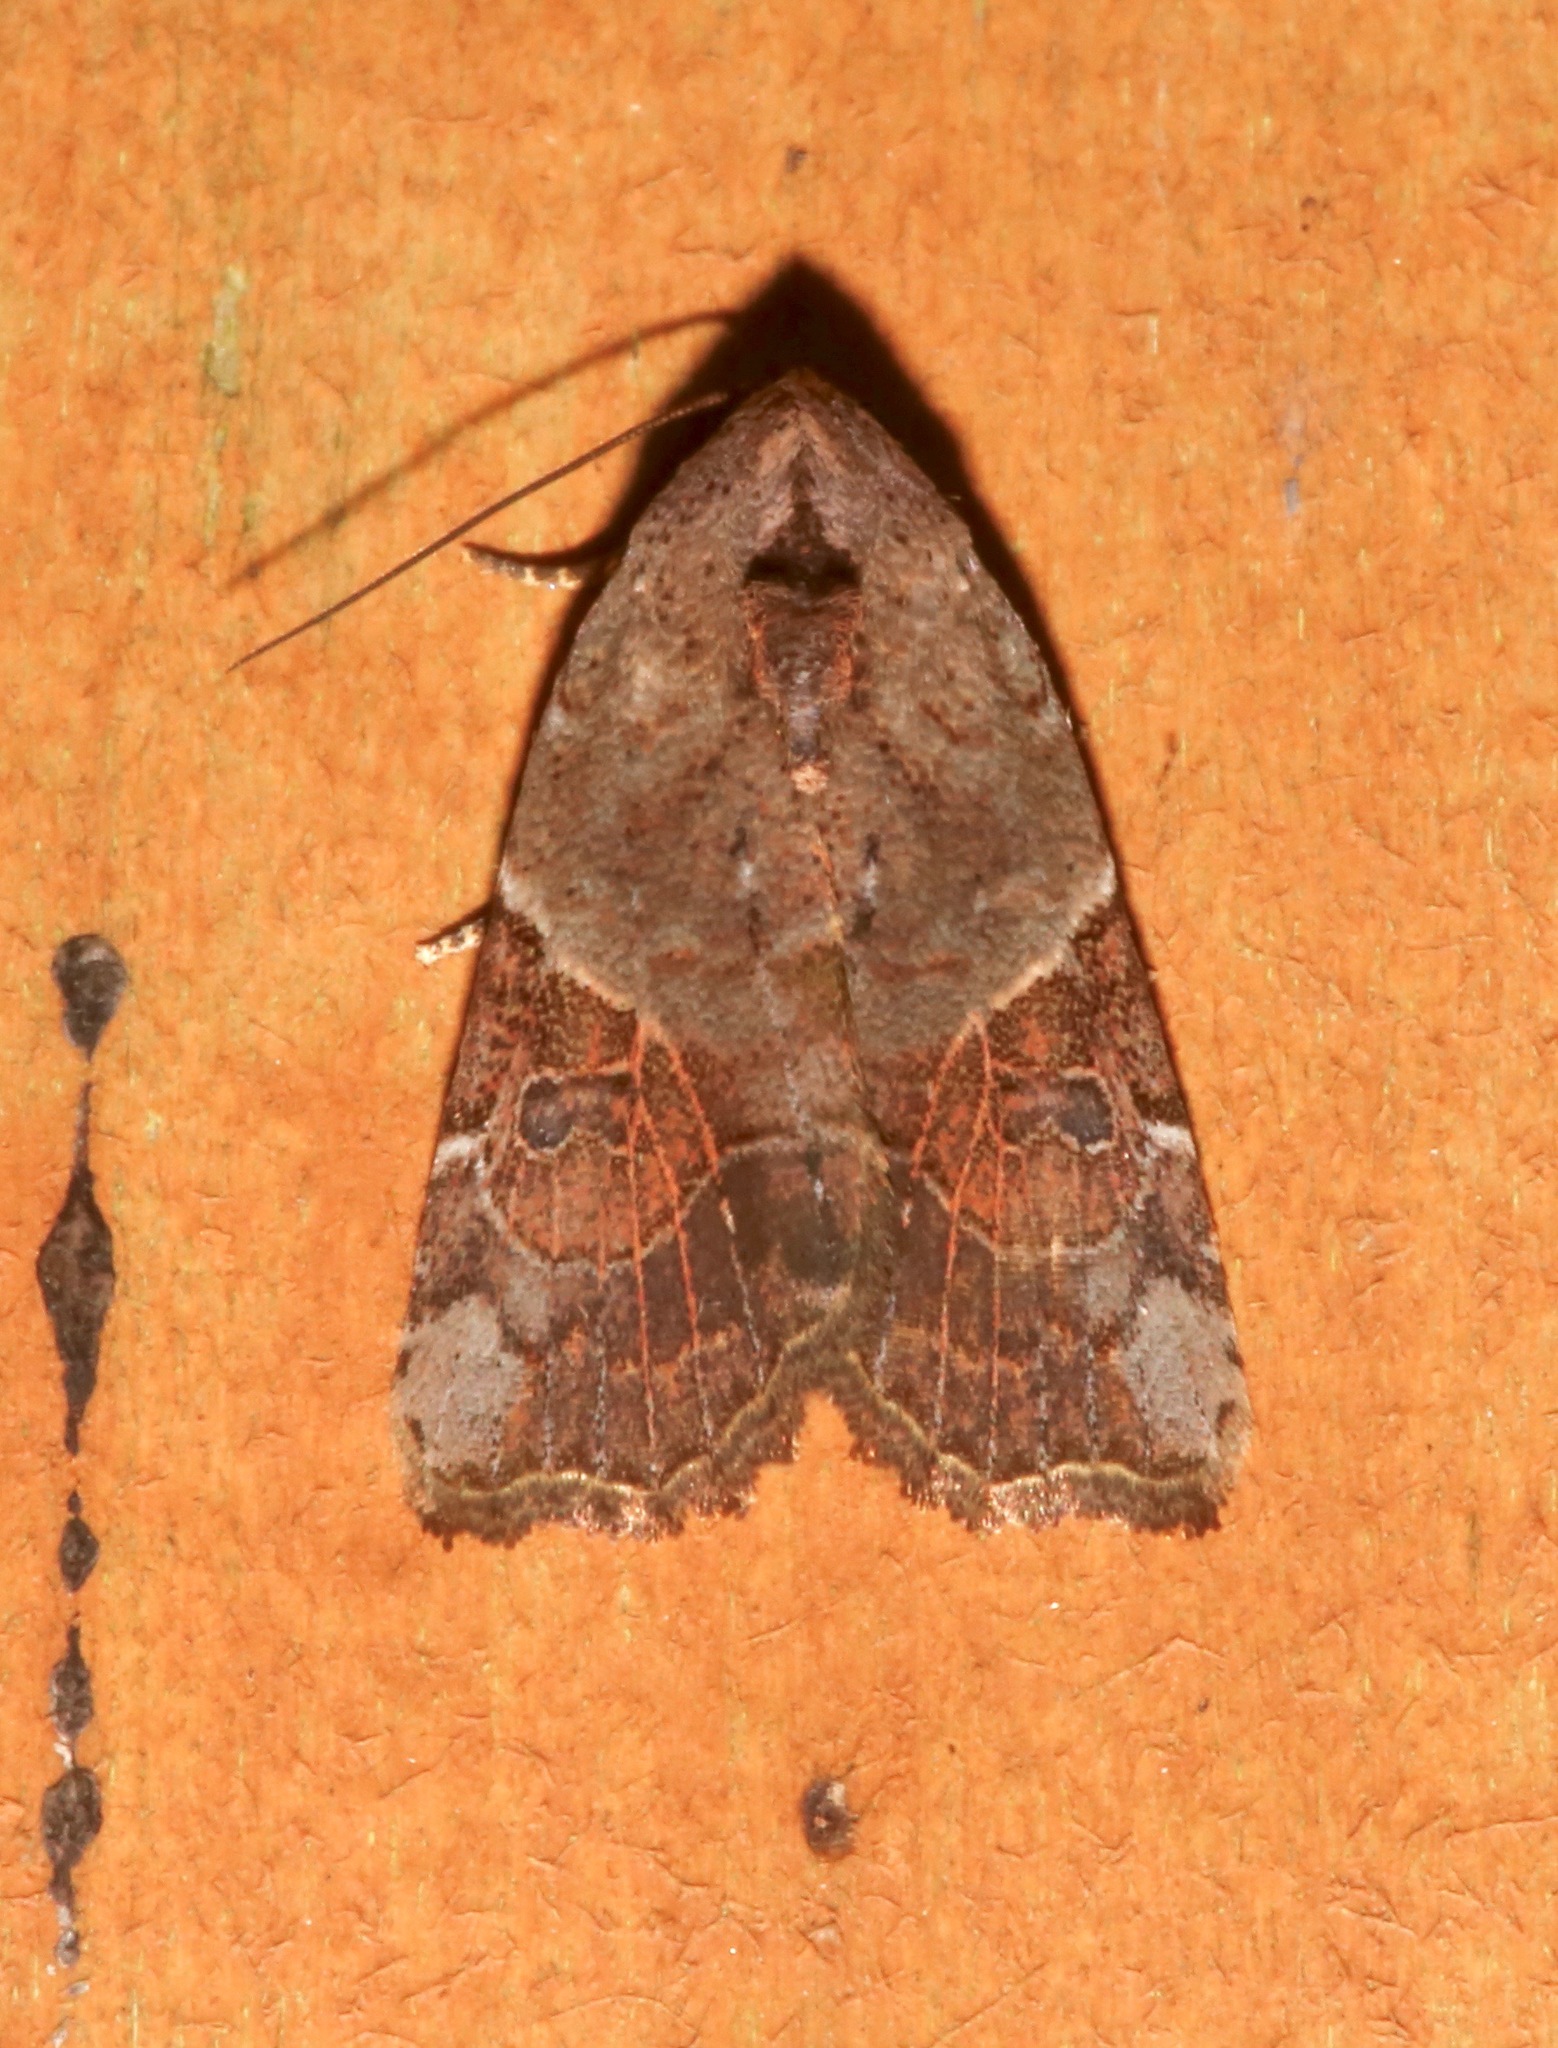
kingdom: Animalia
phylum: Arthropoda
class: Insecta
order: Lepidoptera
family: Noctuidae
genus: Gonodes
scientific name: Gonodes liquida
